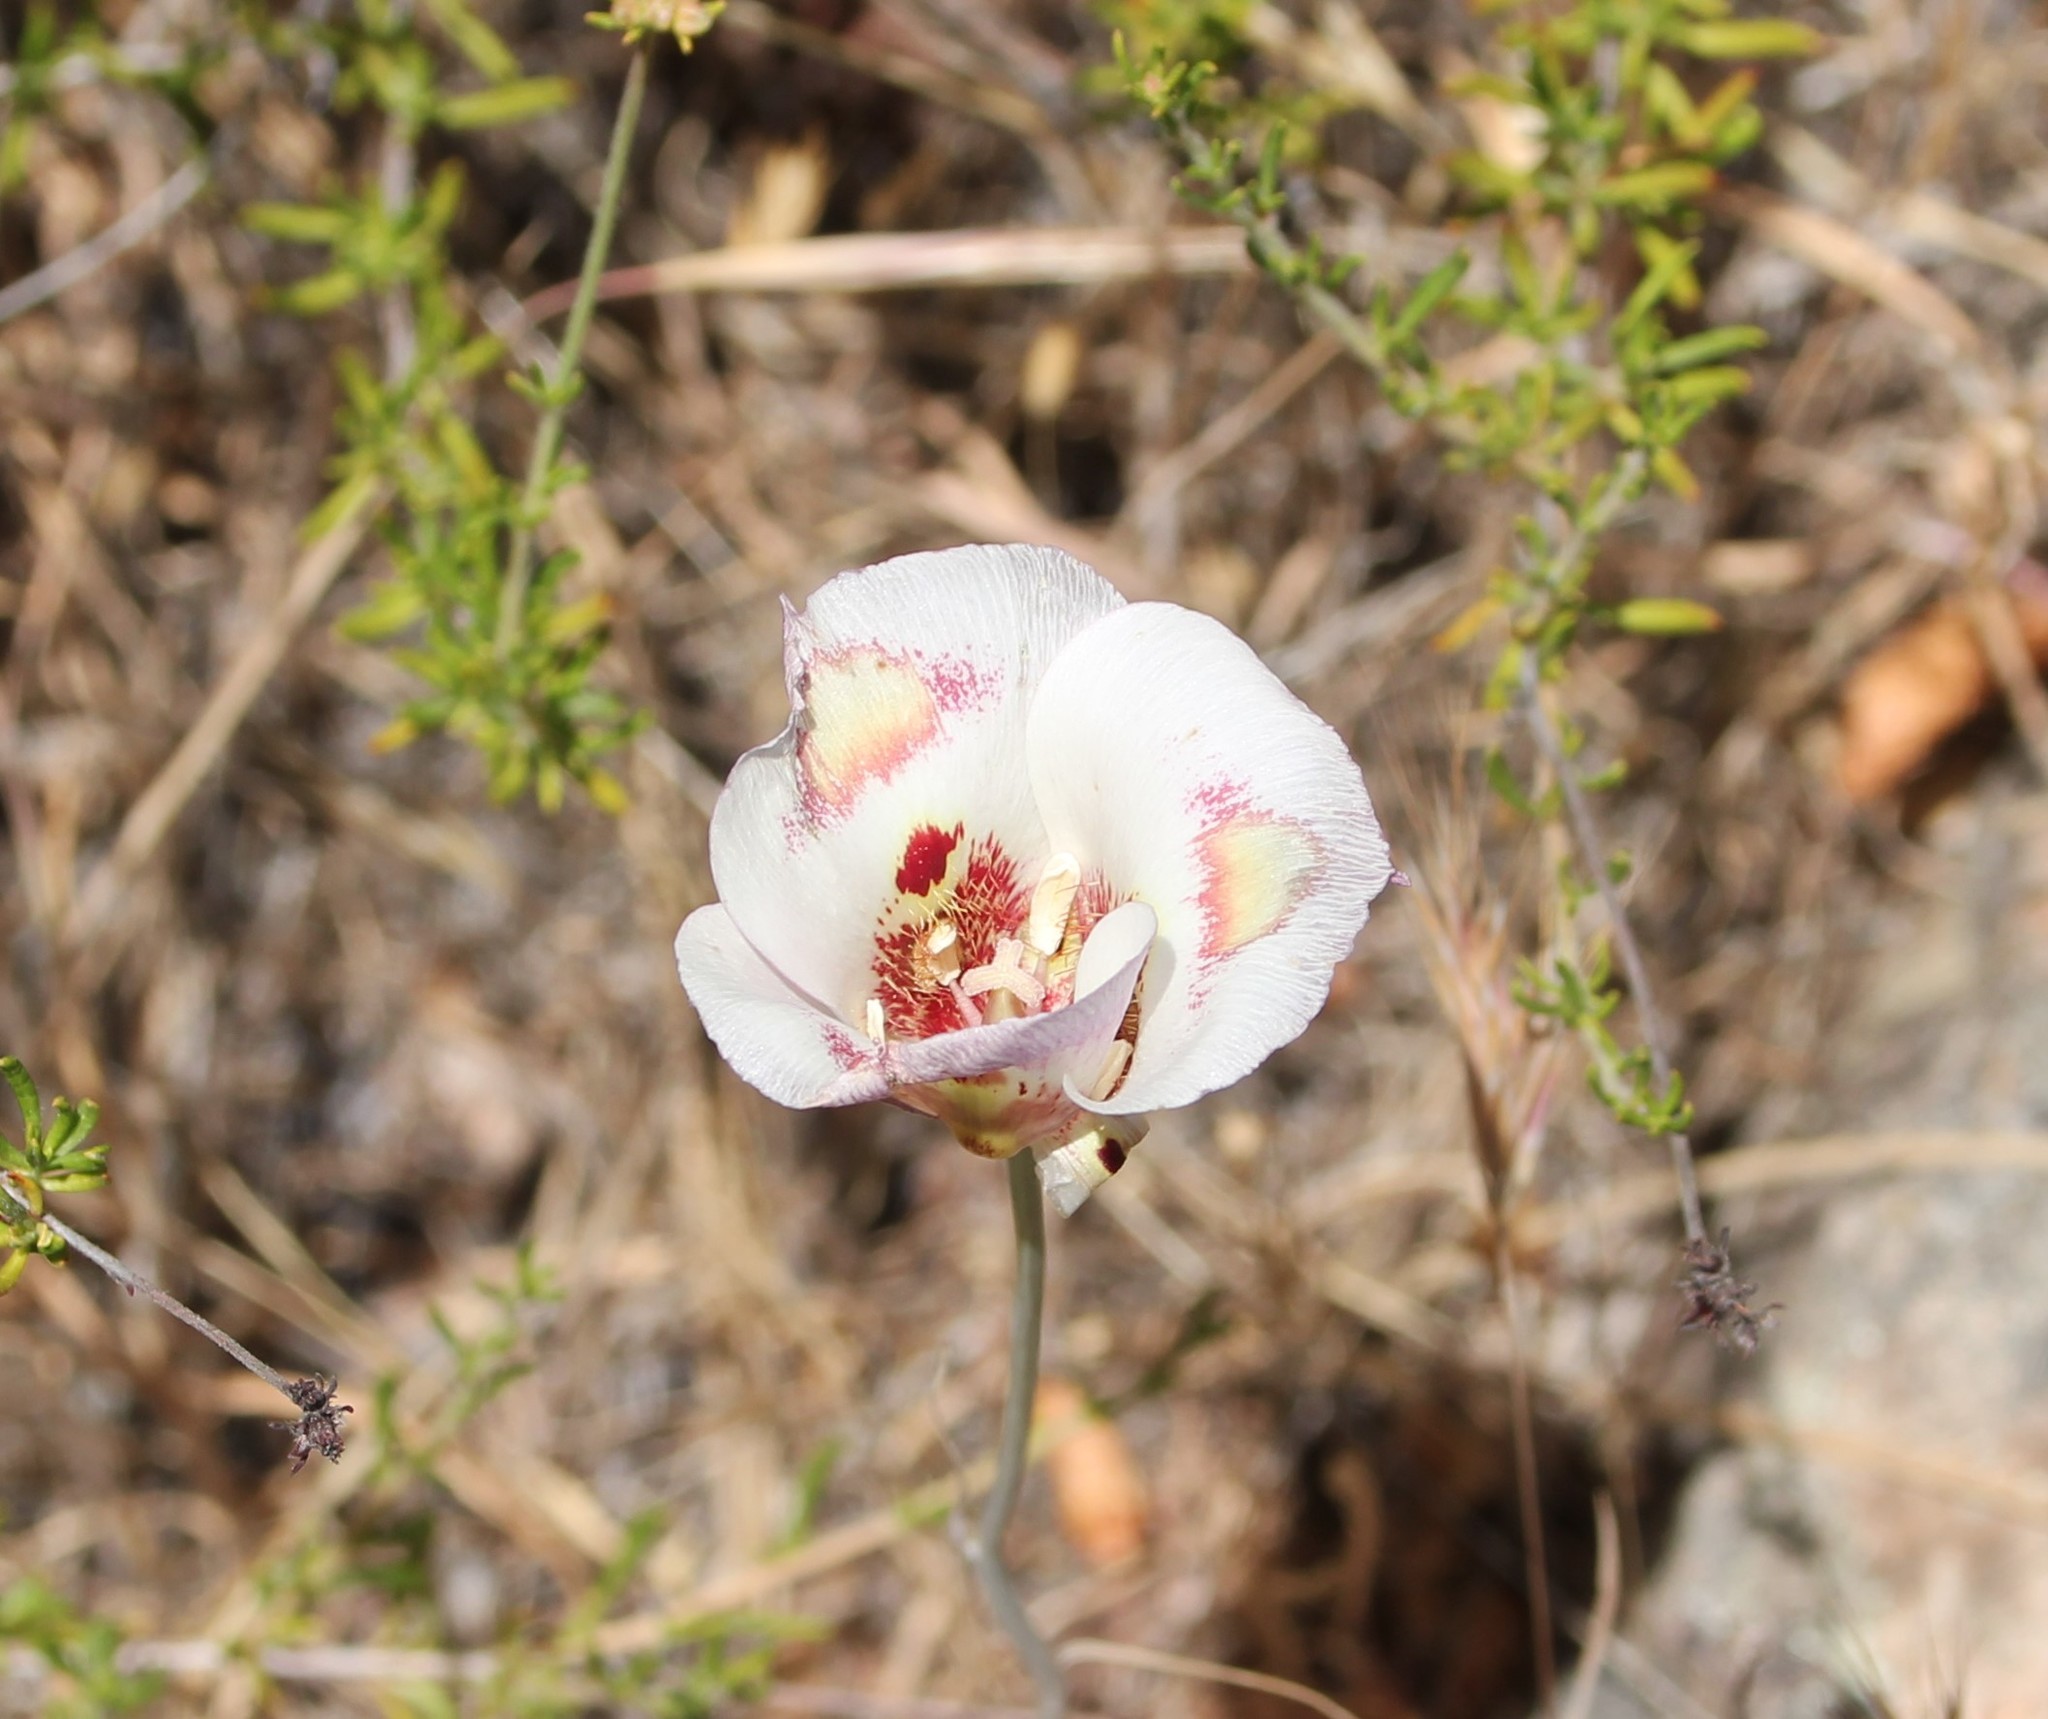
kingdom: Plantae
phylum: Tracheophyta
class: Liliopsida
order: Liliales
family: Liliaceae
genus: Calochortus
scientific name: Calochortus venustus
